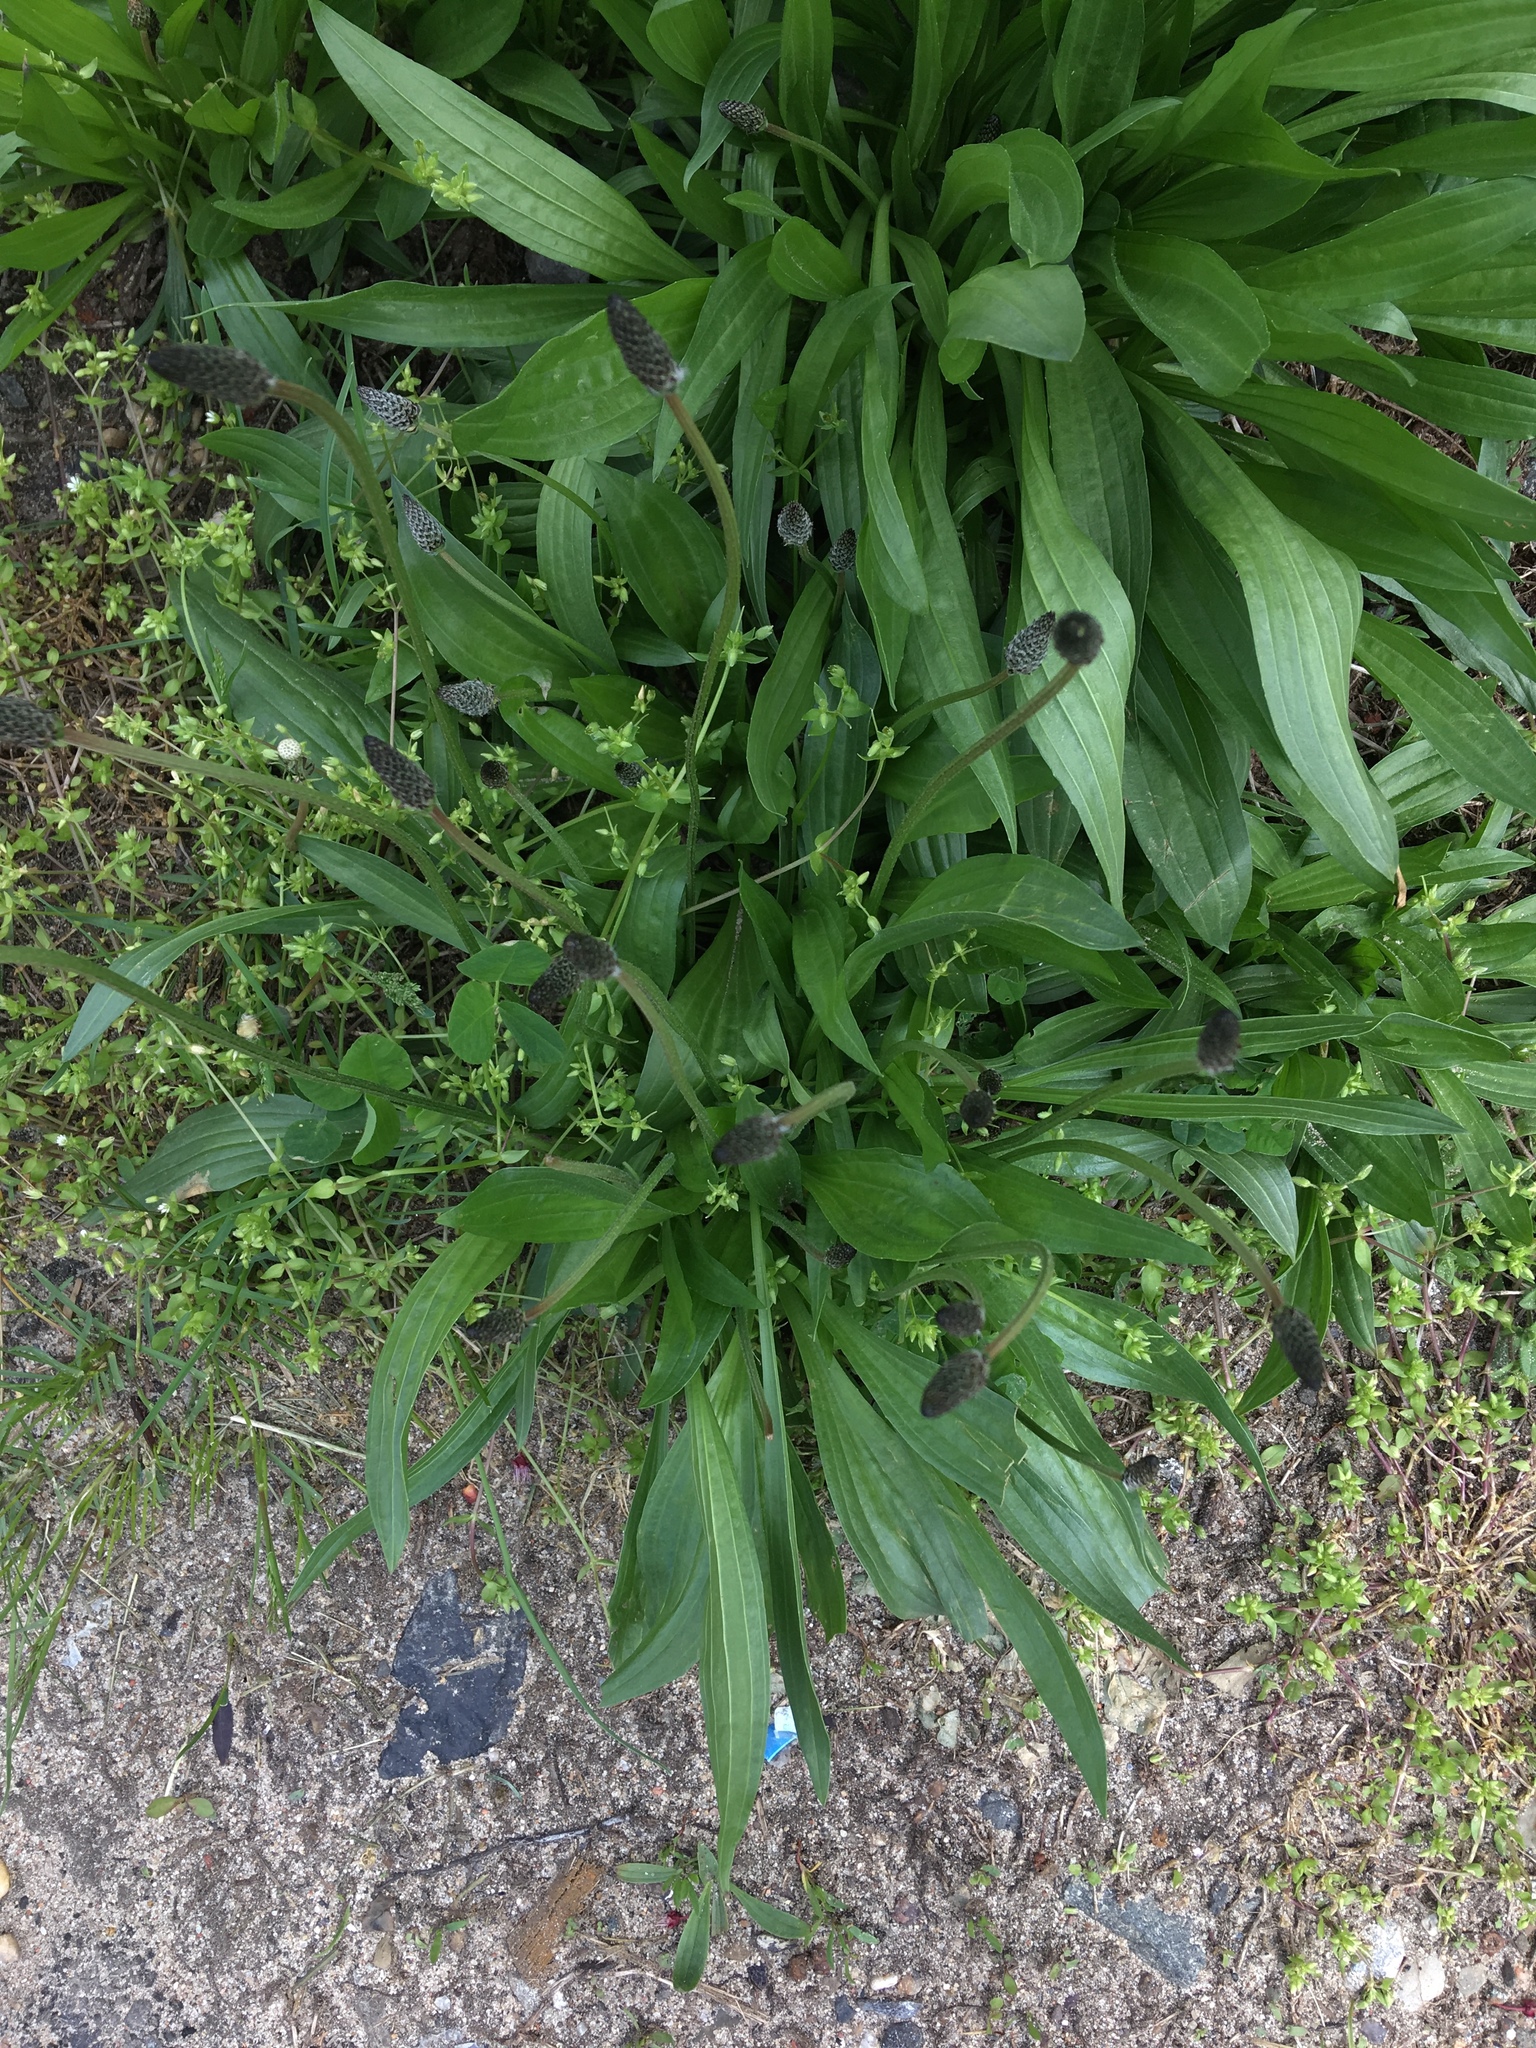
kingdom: Plantae
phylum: Tracheophyta
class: Magnoliopsida
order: Lamiales
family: Plantaginaceae
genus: Plantago
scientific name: Plantago lanceolata
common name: Ribwort plantain
